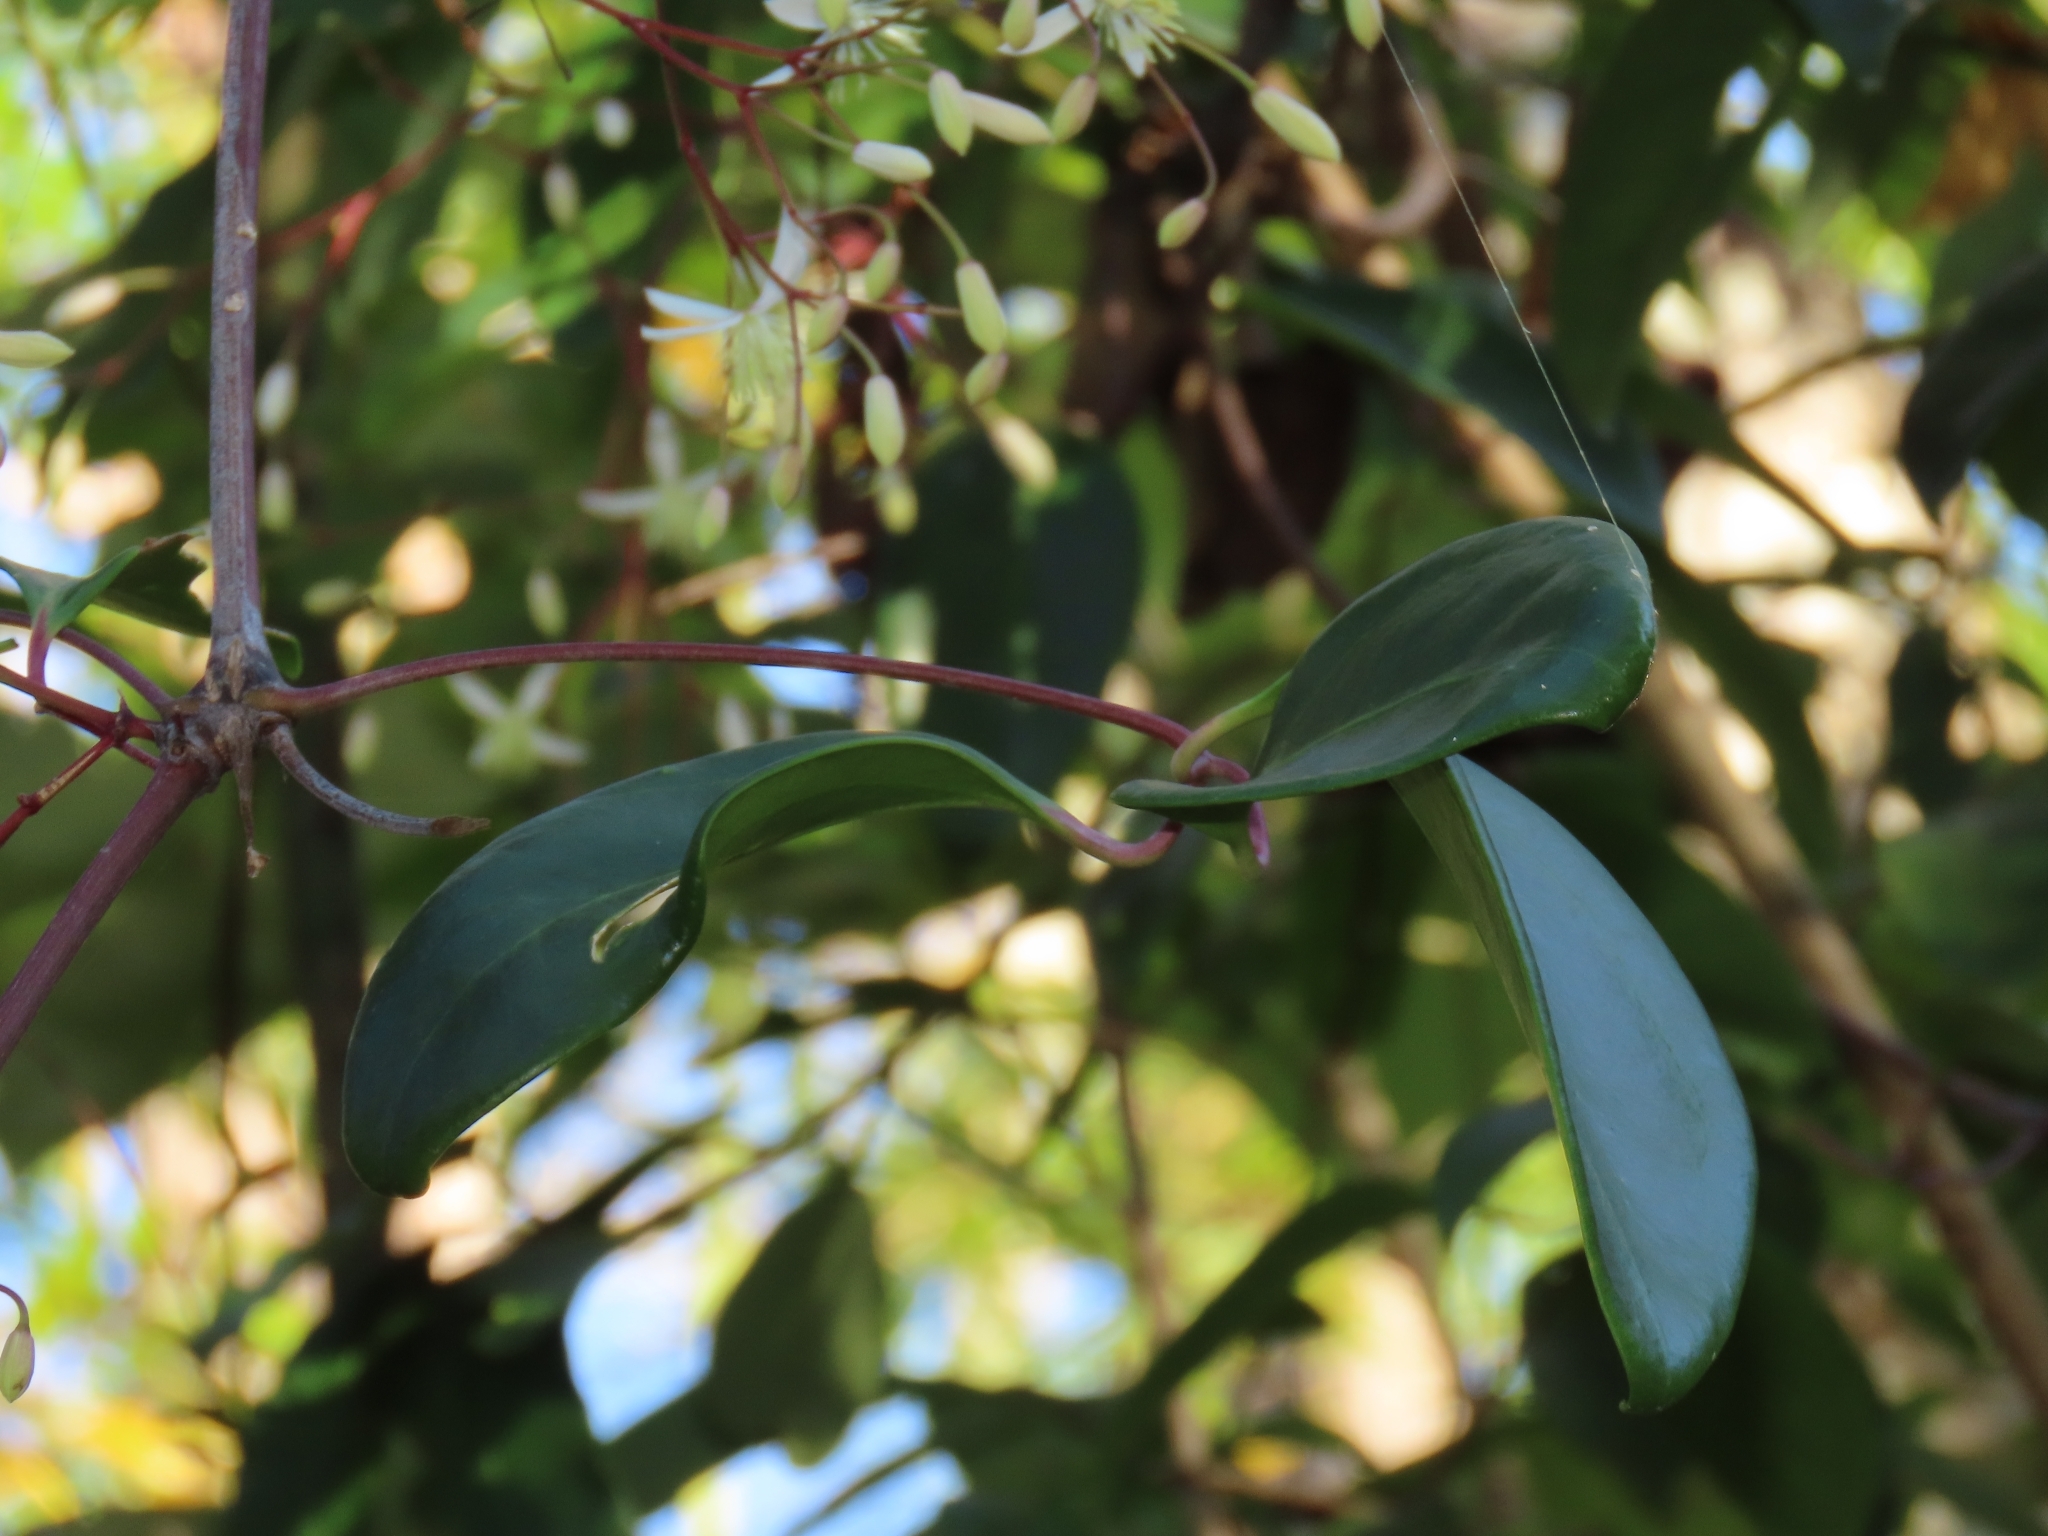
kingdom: Plantae
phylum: Tracheophyta
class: Magnoliopsida
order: Ranunculales
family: Ranunculaceae
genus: Clematis
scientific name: Clematis crassifolia
